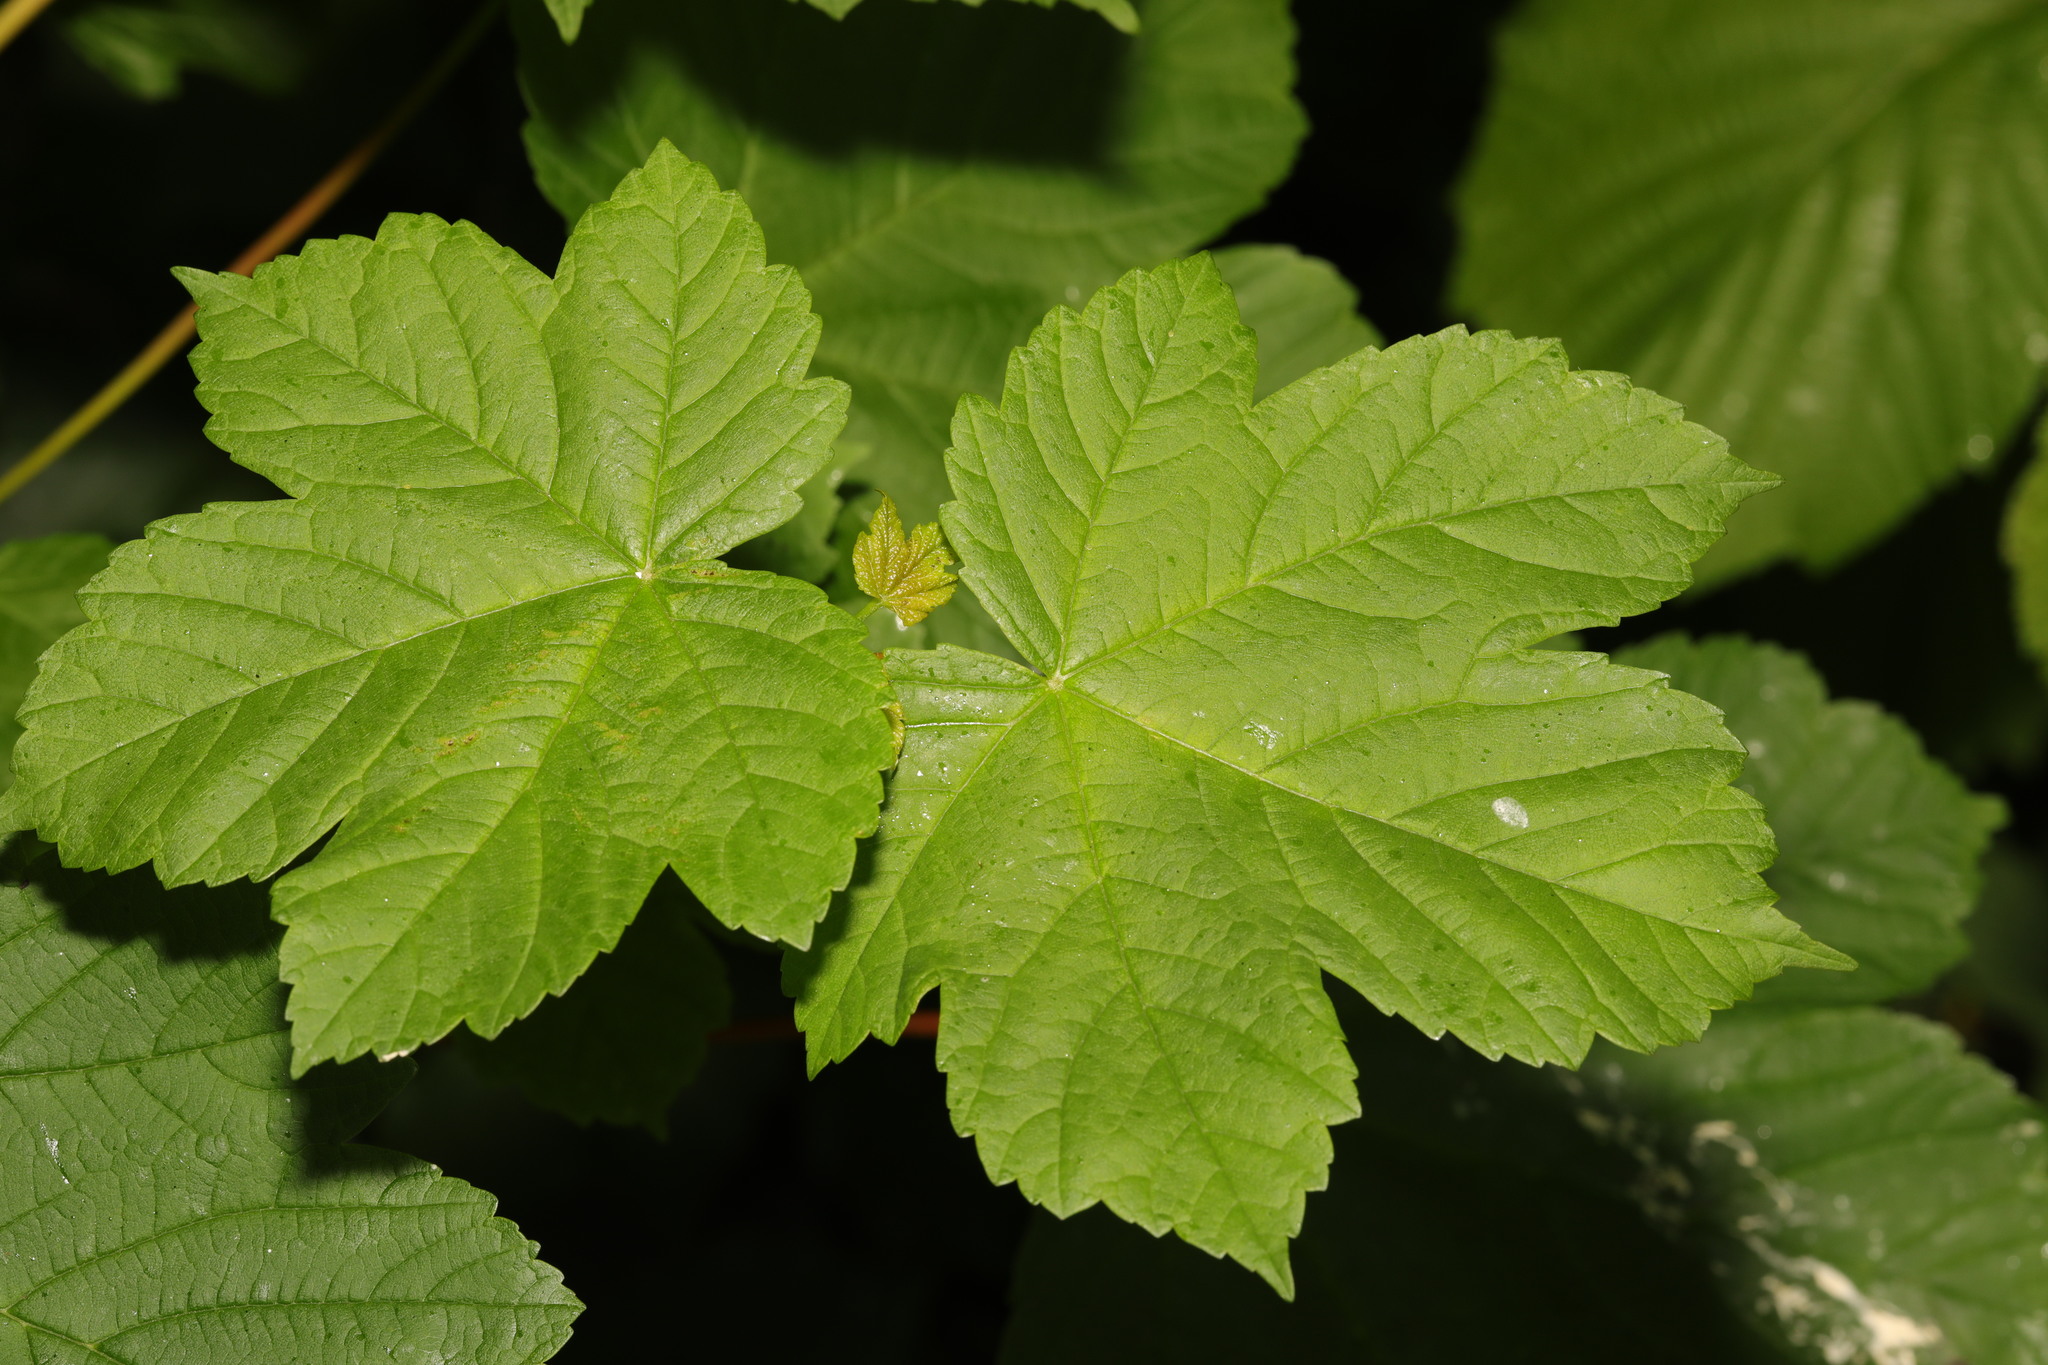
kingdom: Plantae
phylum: Tracheophyta
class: Magnoliopsida
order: Sapindales
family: Sapindaceae
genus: Acer
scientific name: Acer pseudoplatanus
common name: Sycamore
